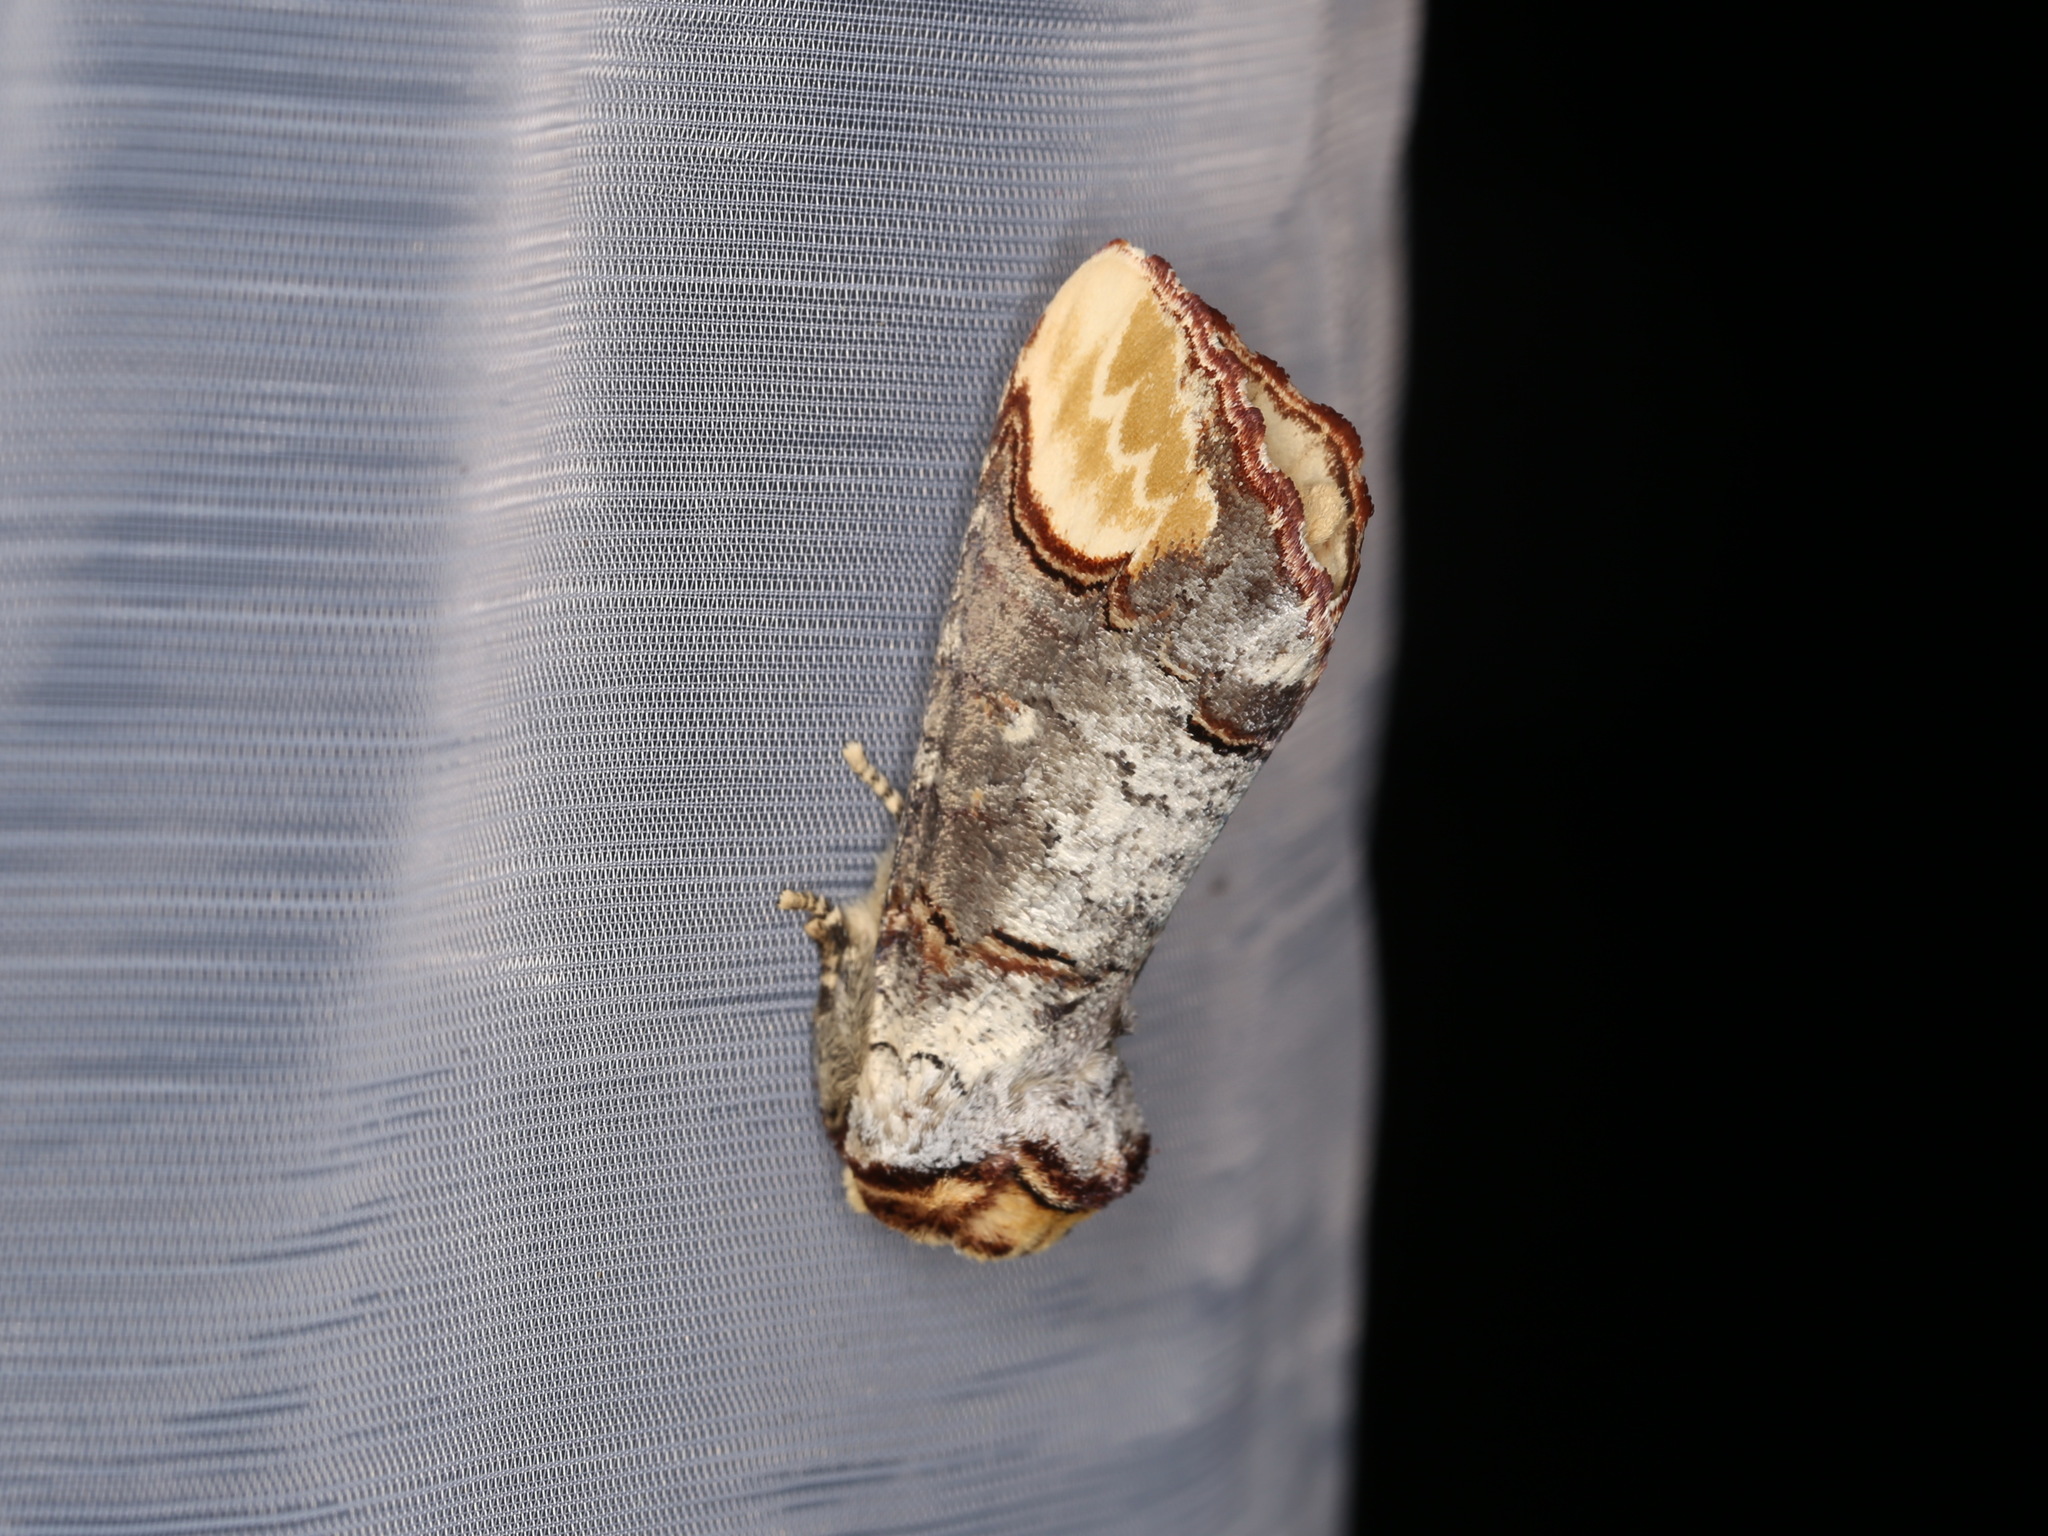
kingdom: Animalia
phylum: Arthropoda
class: Insecta
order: Lepidoptera
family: Notodontidae
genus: Phalera
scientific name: Phalera bucephala
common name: Buff-tip
